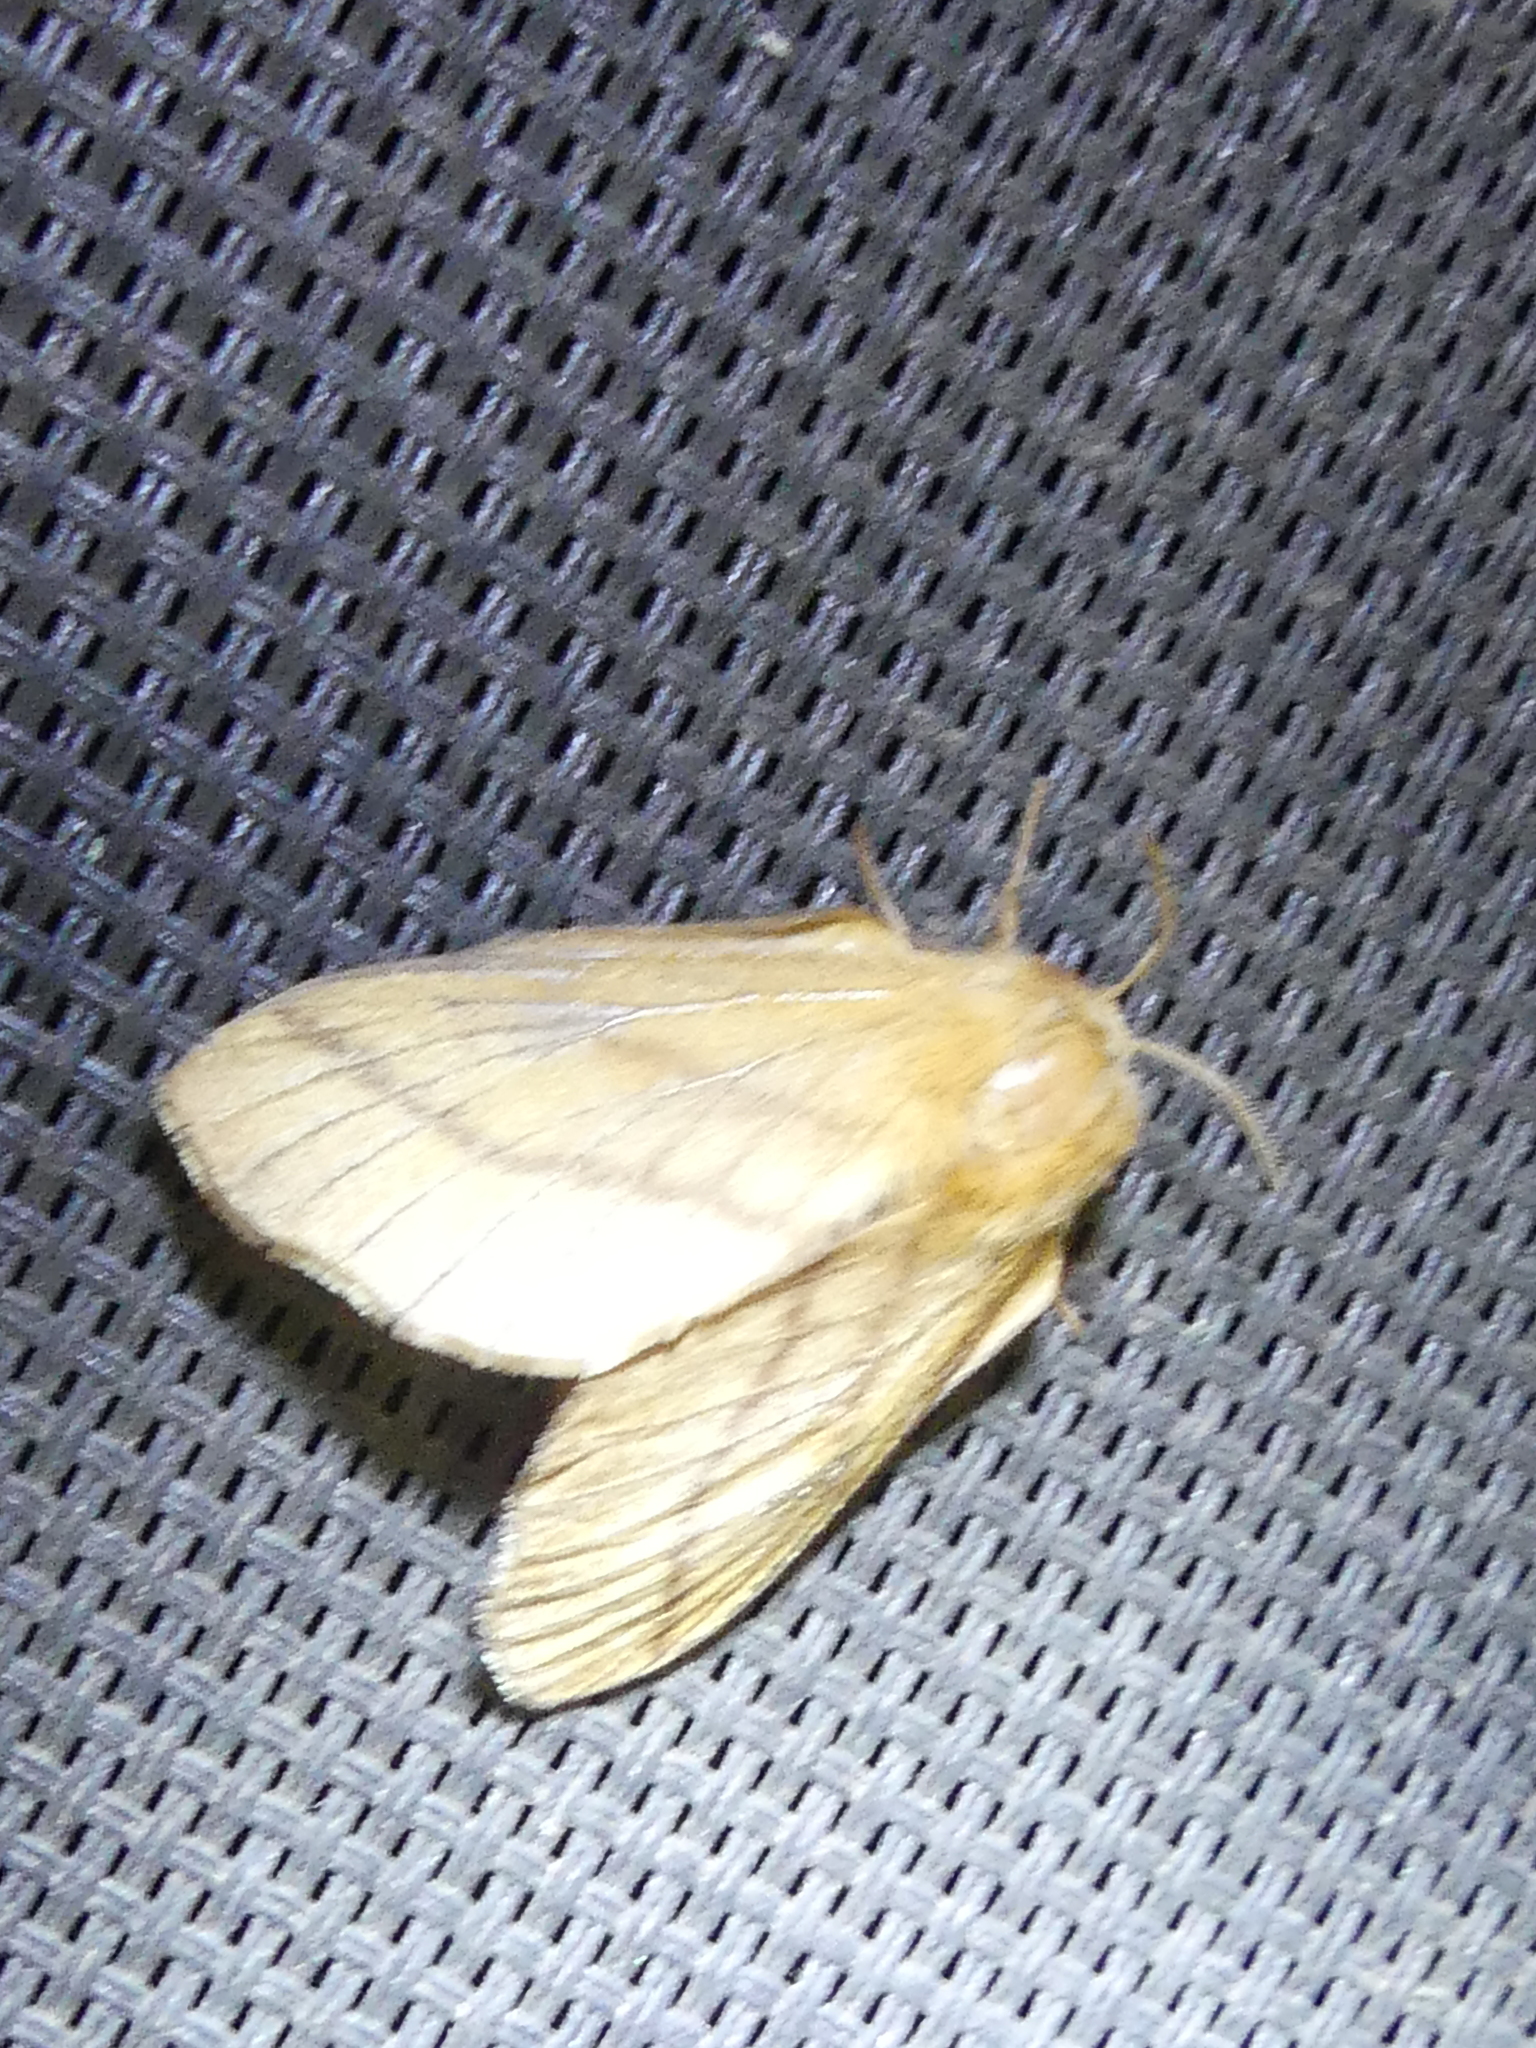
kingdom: Animalia
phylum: Arthropoda
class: Insecta
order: Lepidoptera
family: Lasiocampidae
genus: Malacosoma
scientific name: Malacosoma disstria
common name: Forest tent caterpillar
